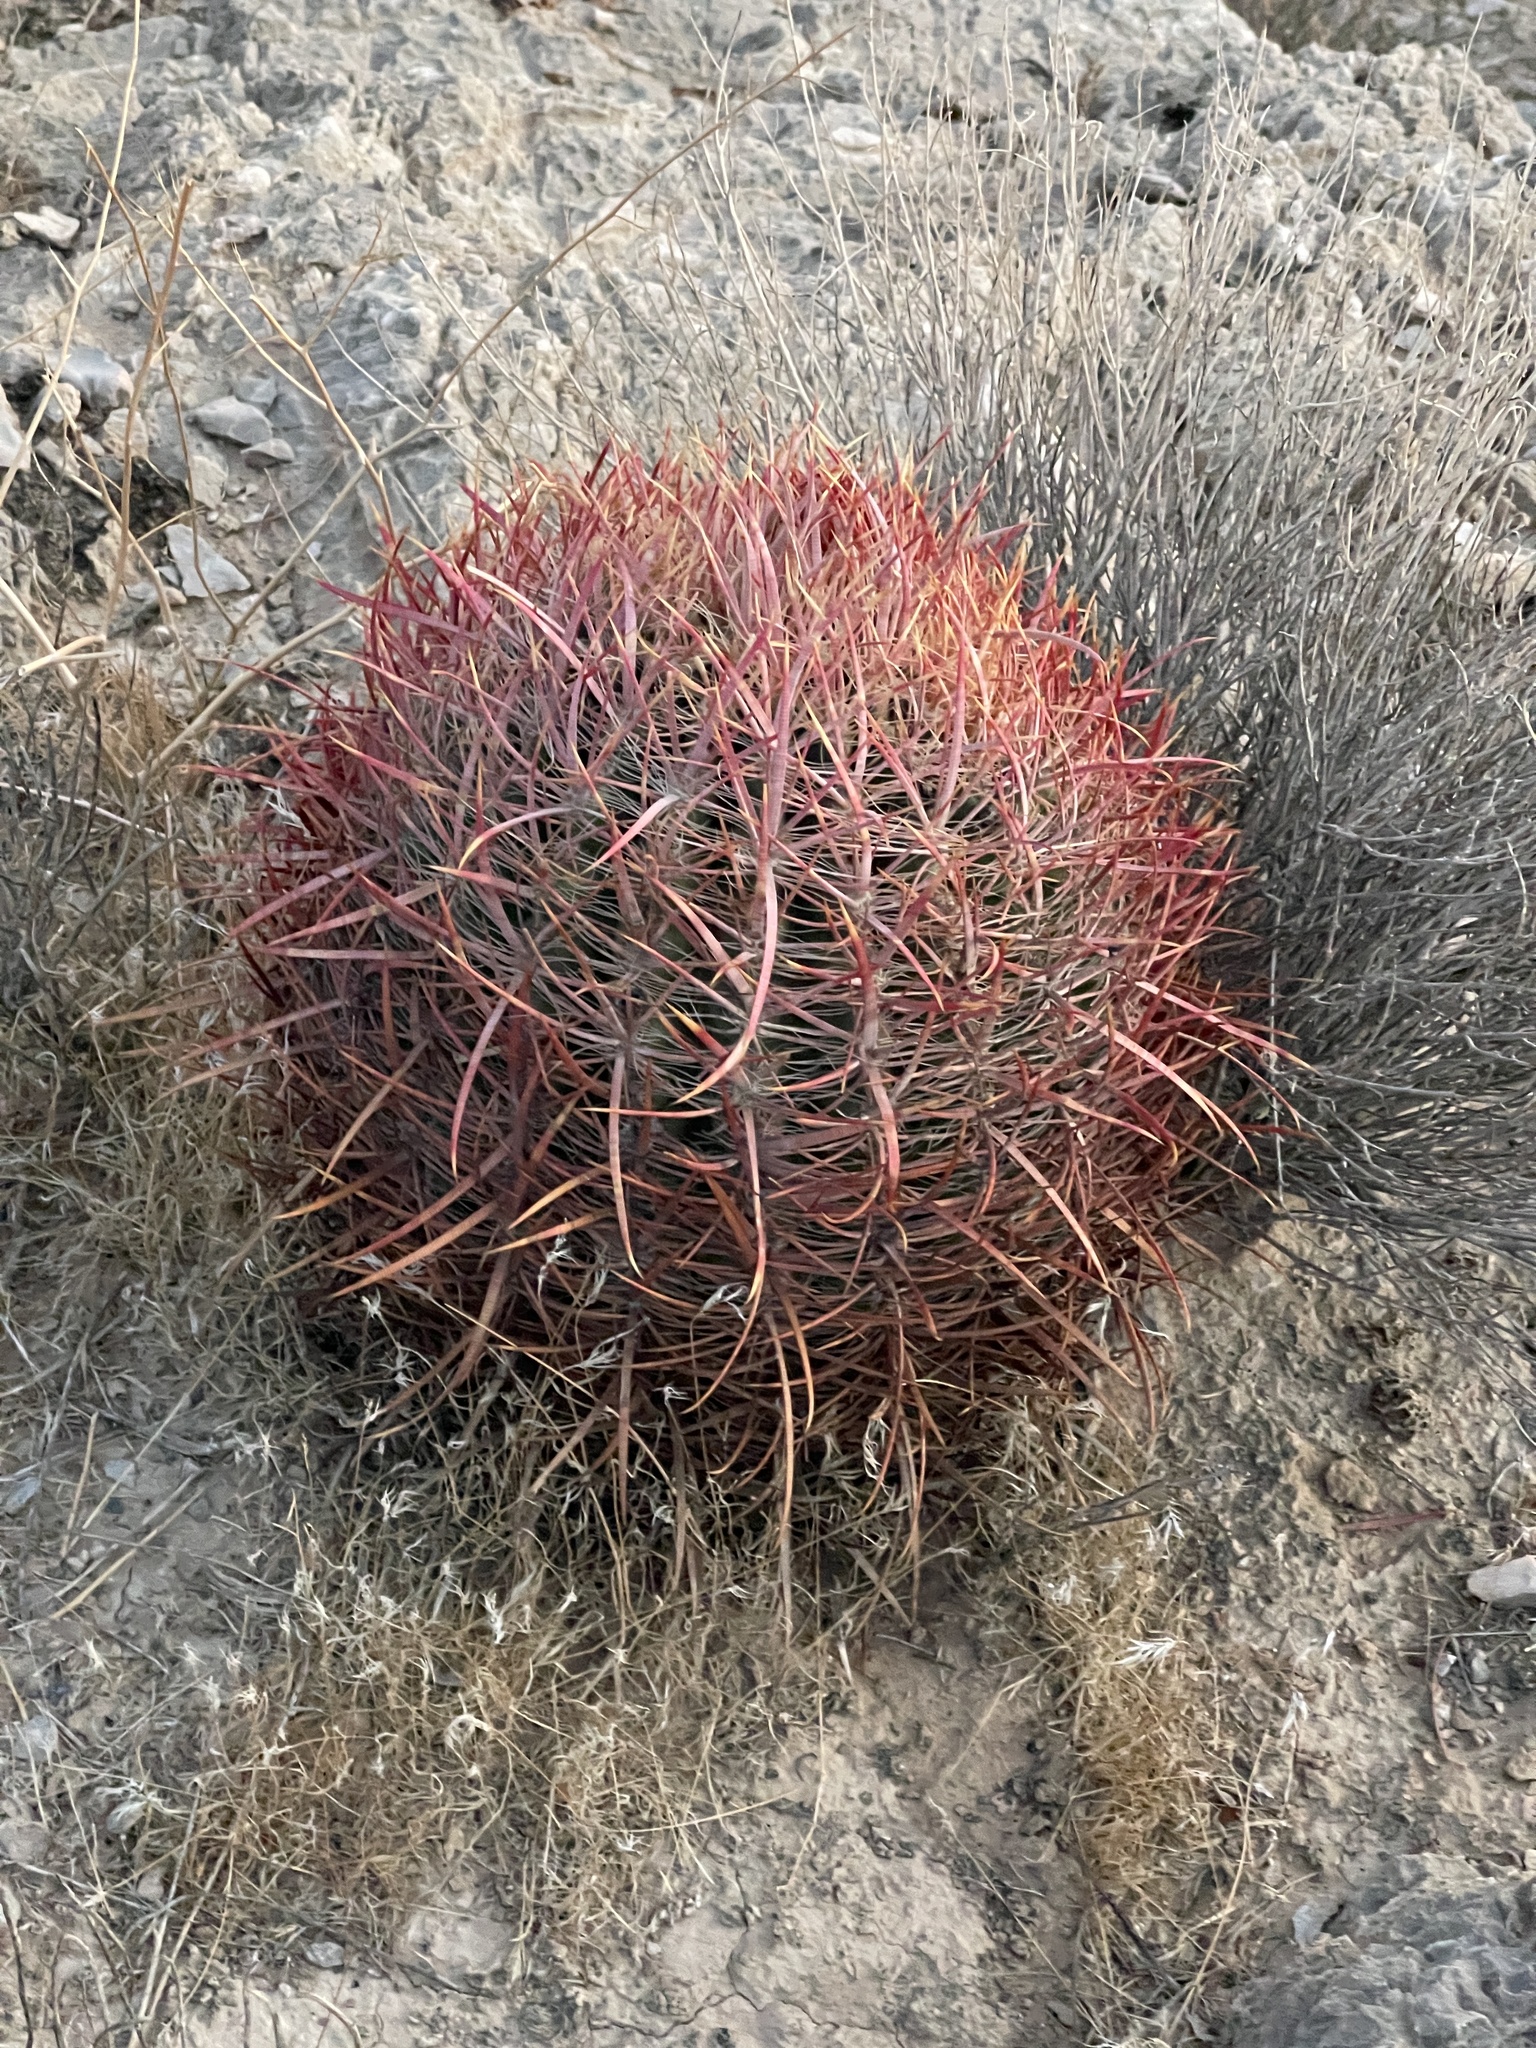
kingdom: Plantae
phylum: Tracheophyta
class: Magnoliopsida
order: Caryophyllales
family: Cactaceae
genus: Ferocactus
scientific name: Ferocactus cylindraceus
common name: California barrel cactus
